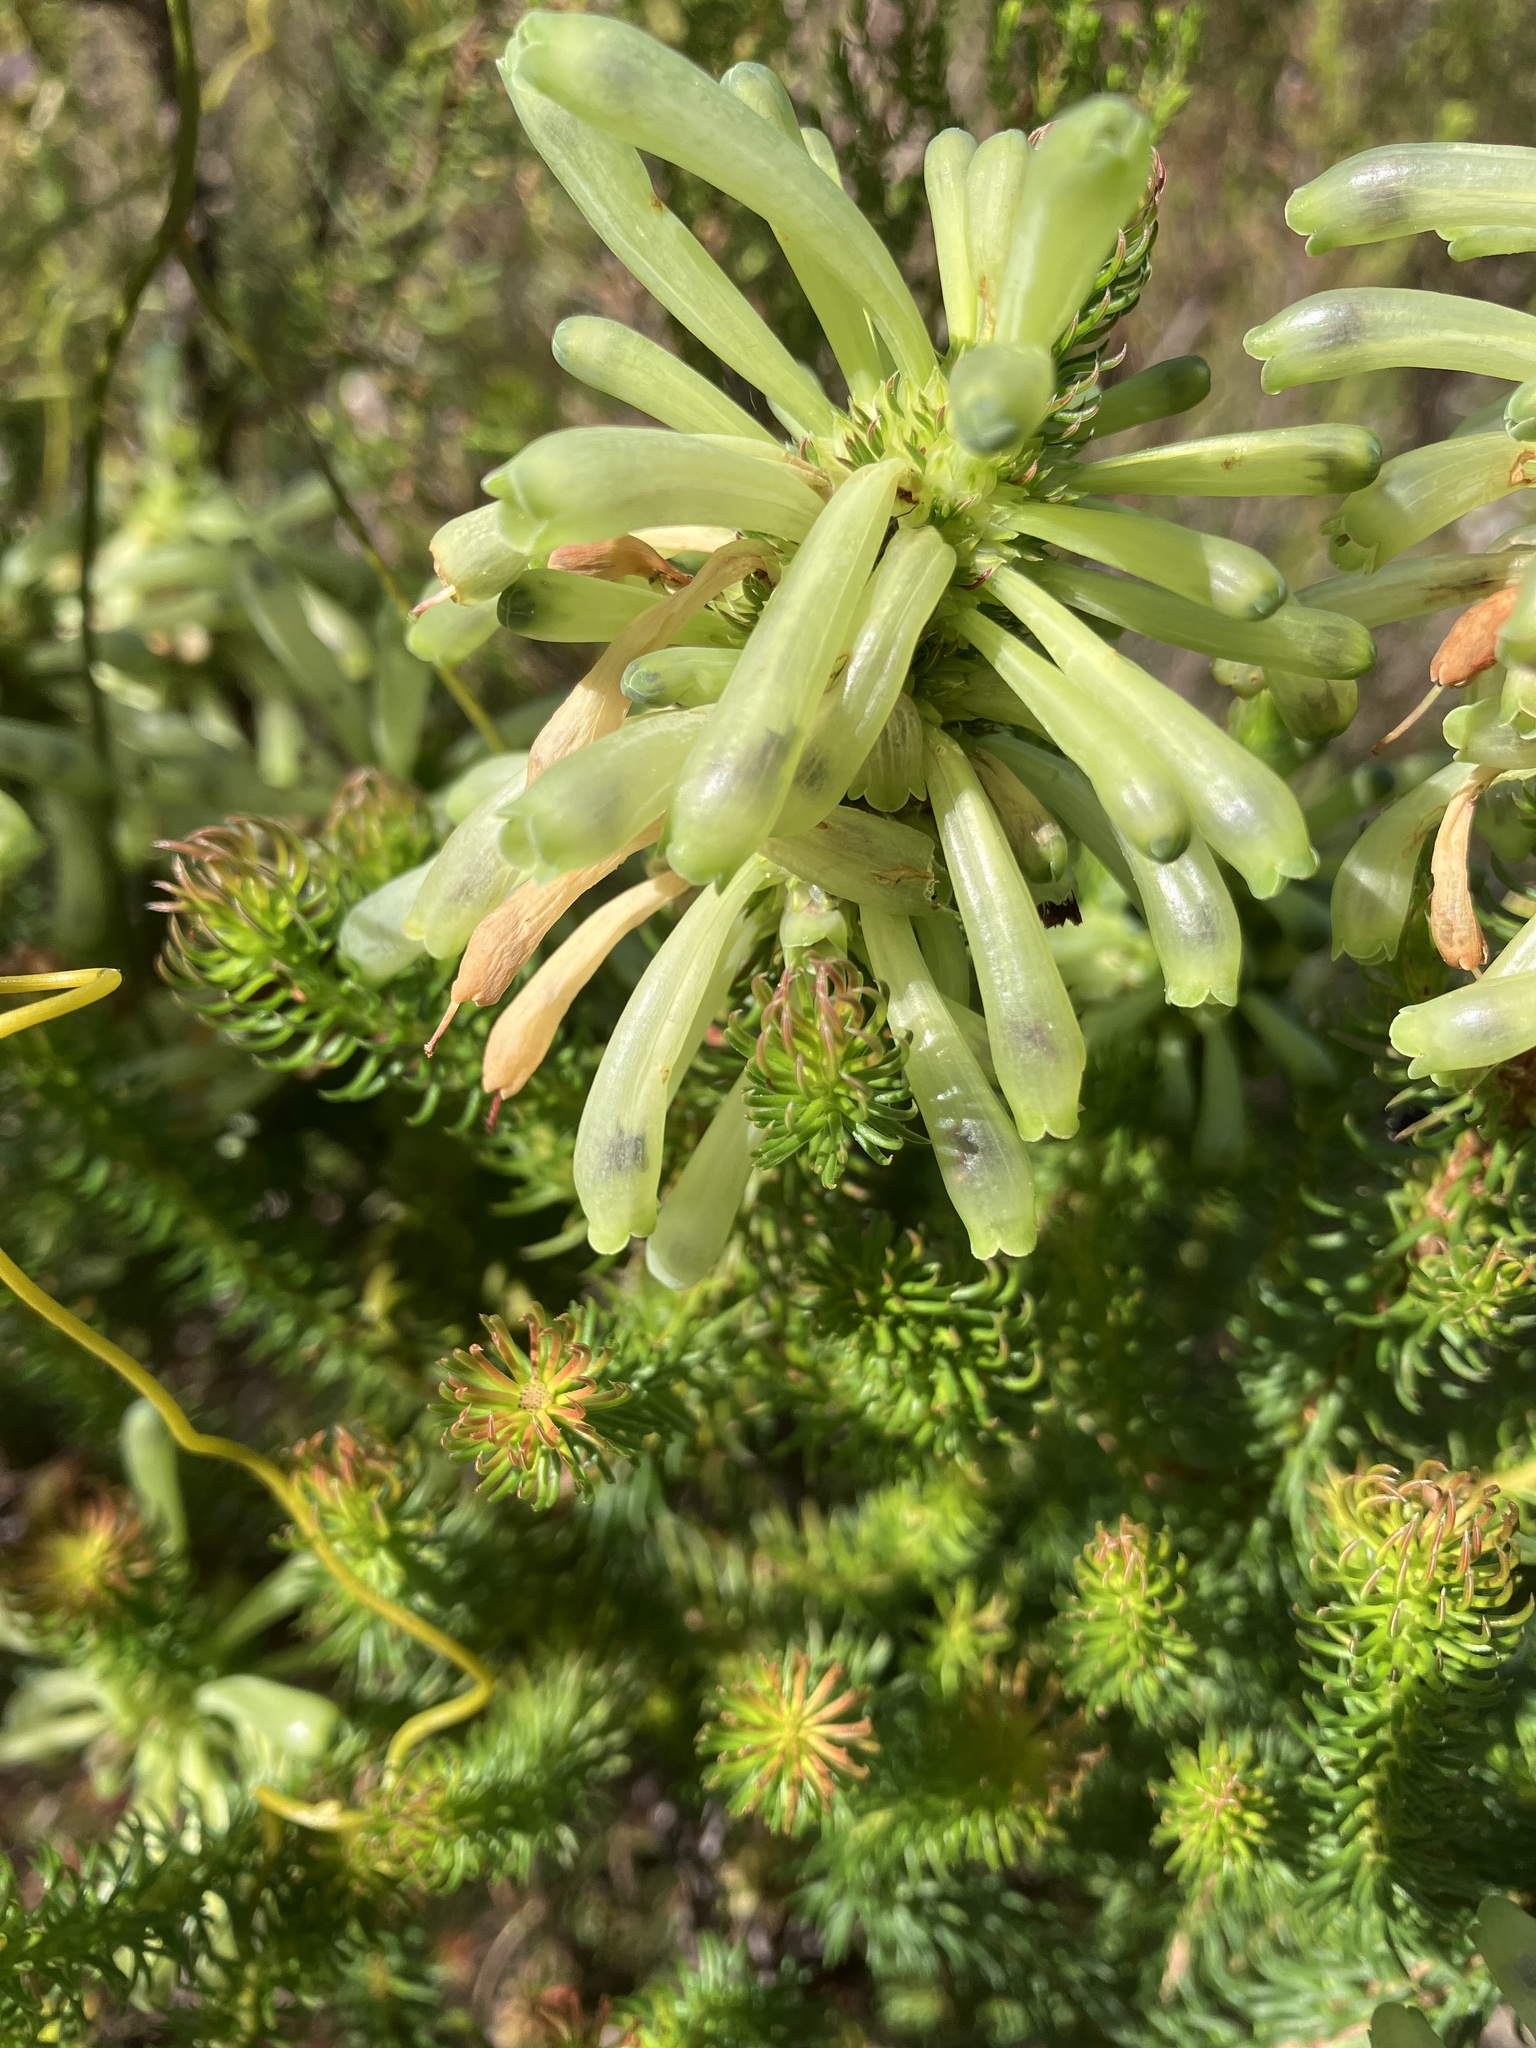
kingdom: Plantae
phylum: Tracheophyta
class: Magnoliopsida
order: Ericales
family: Ericaceae
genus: Erica
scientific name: Erica sessiliflora
